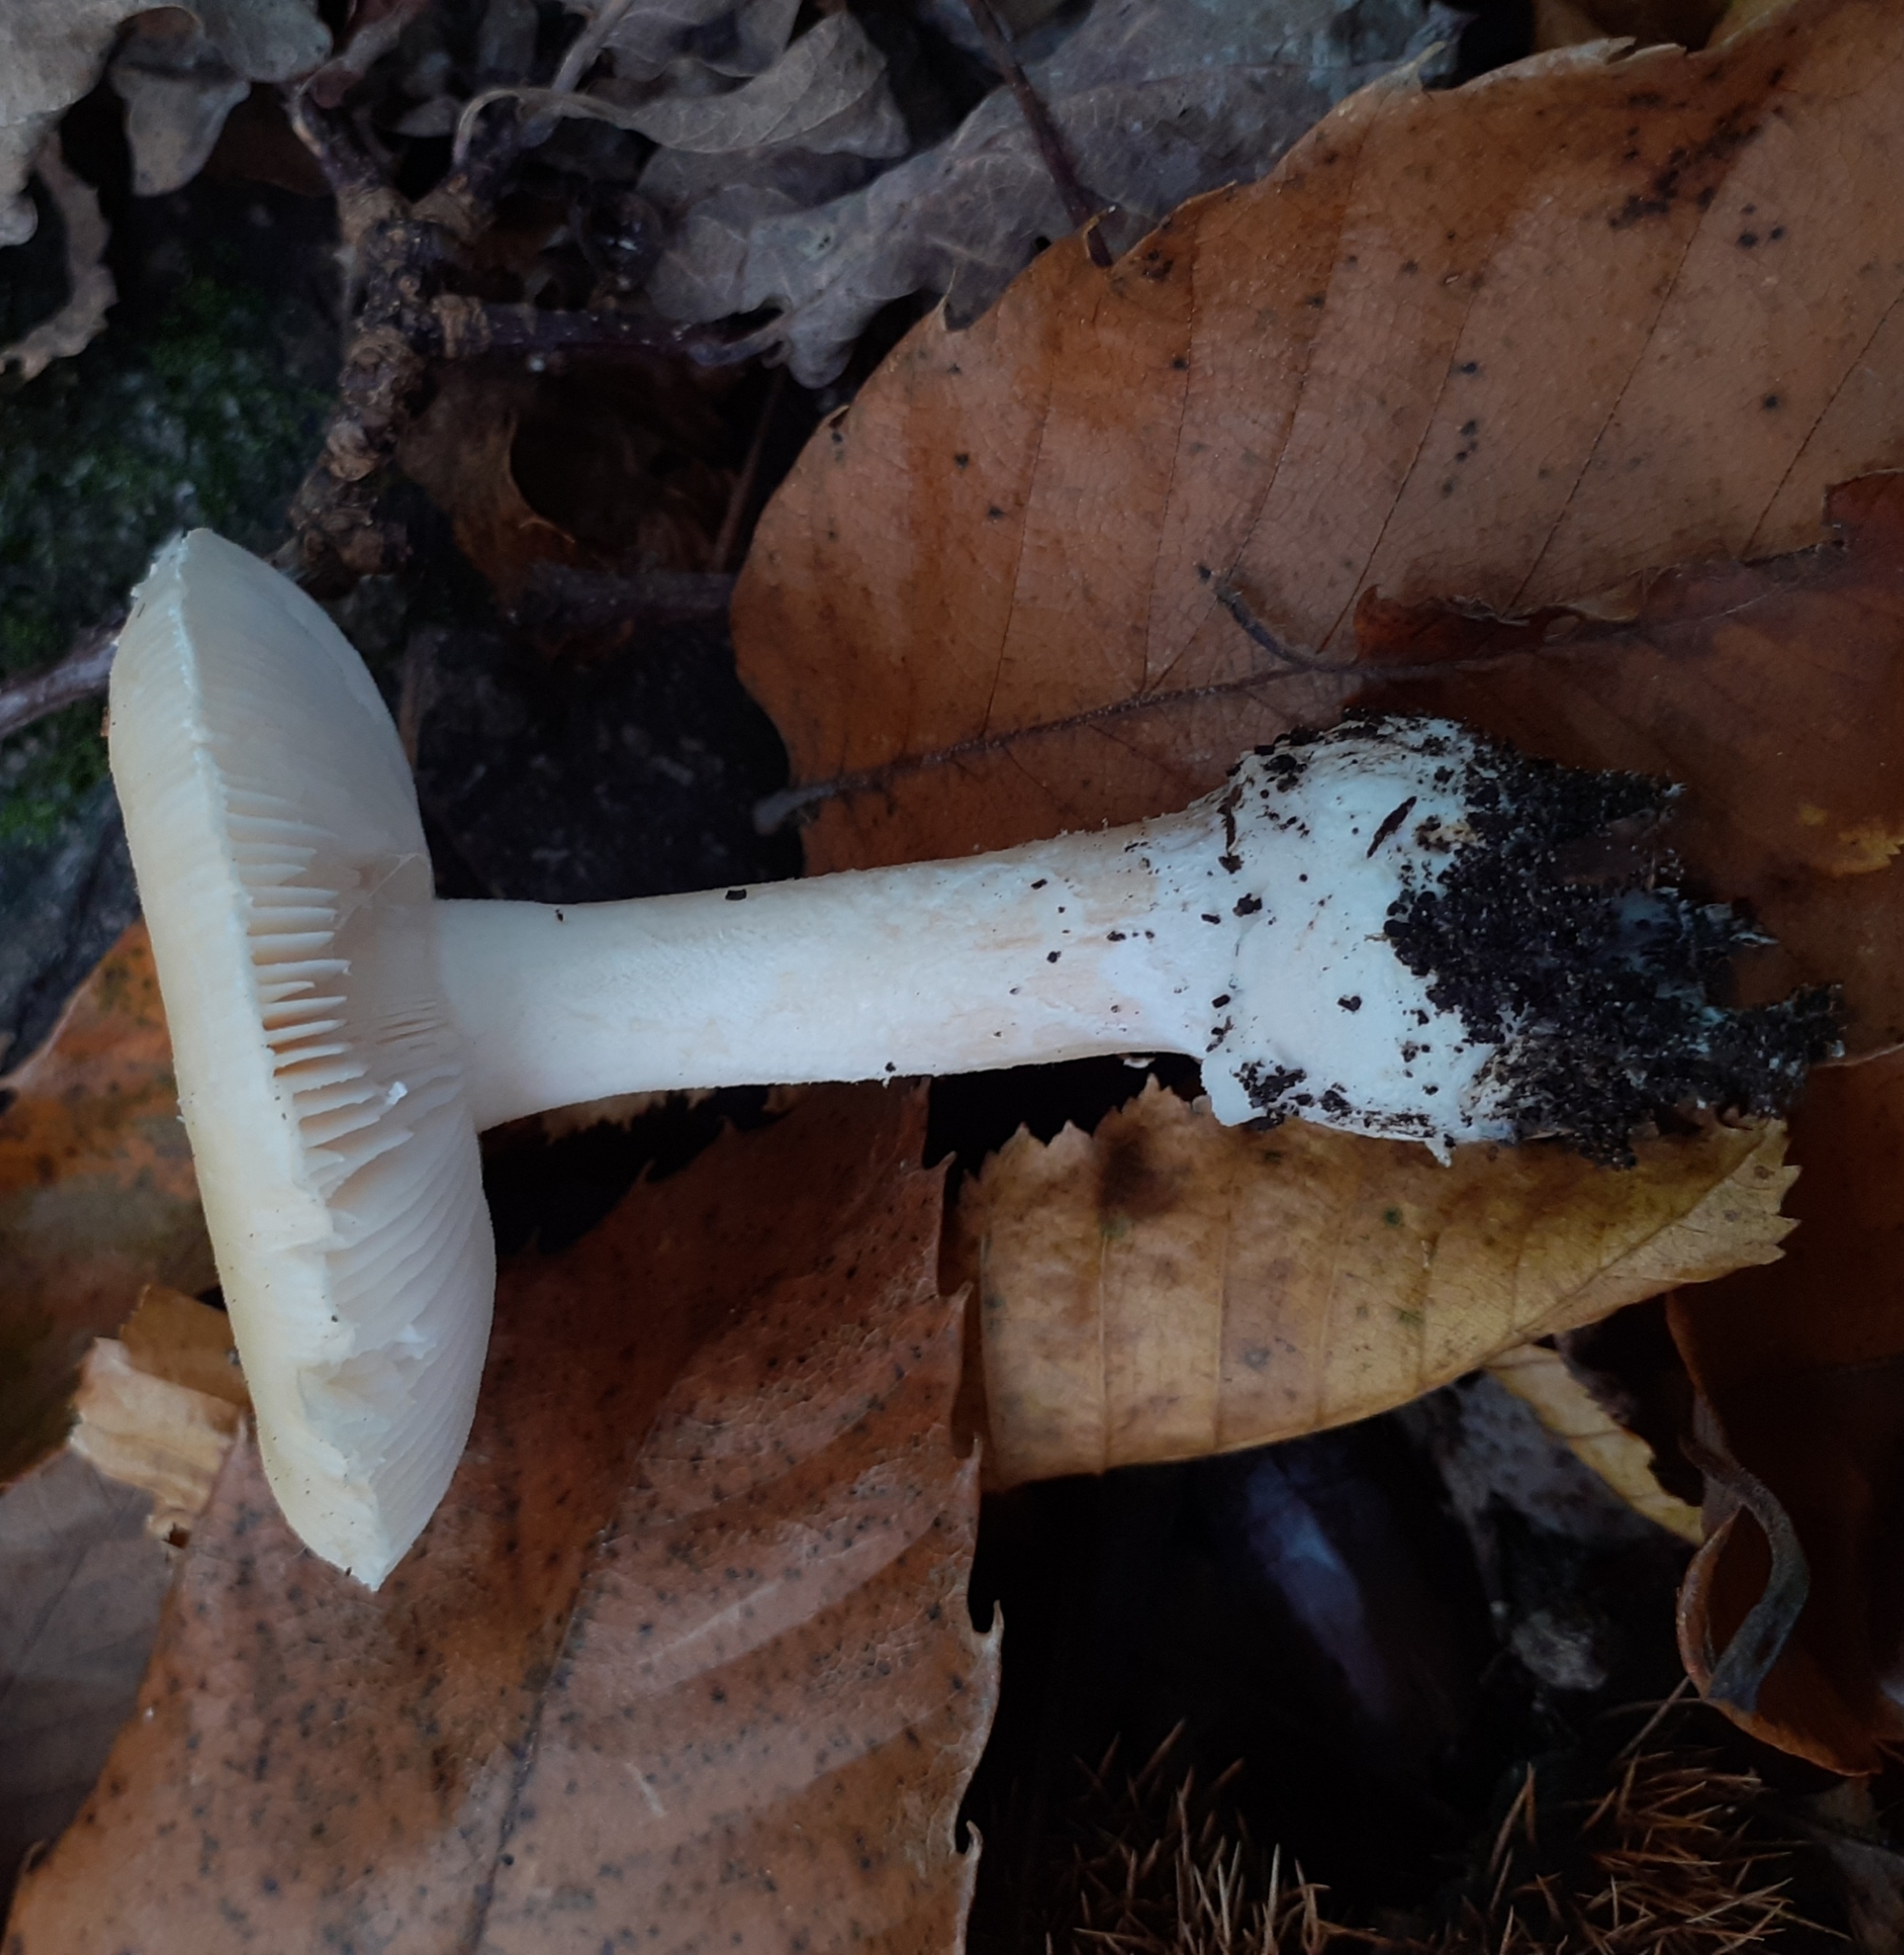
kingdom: Fungi
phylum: Basidiomycota
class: Agaricomycetes
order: Agaricales
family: Amanitaceae
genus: Amanita
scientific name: Amanita gemmata
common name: Jewelled amanita
